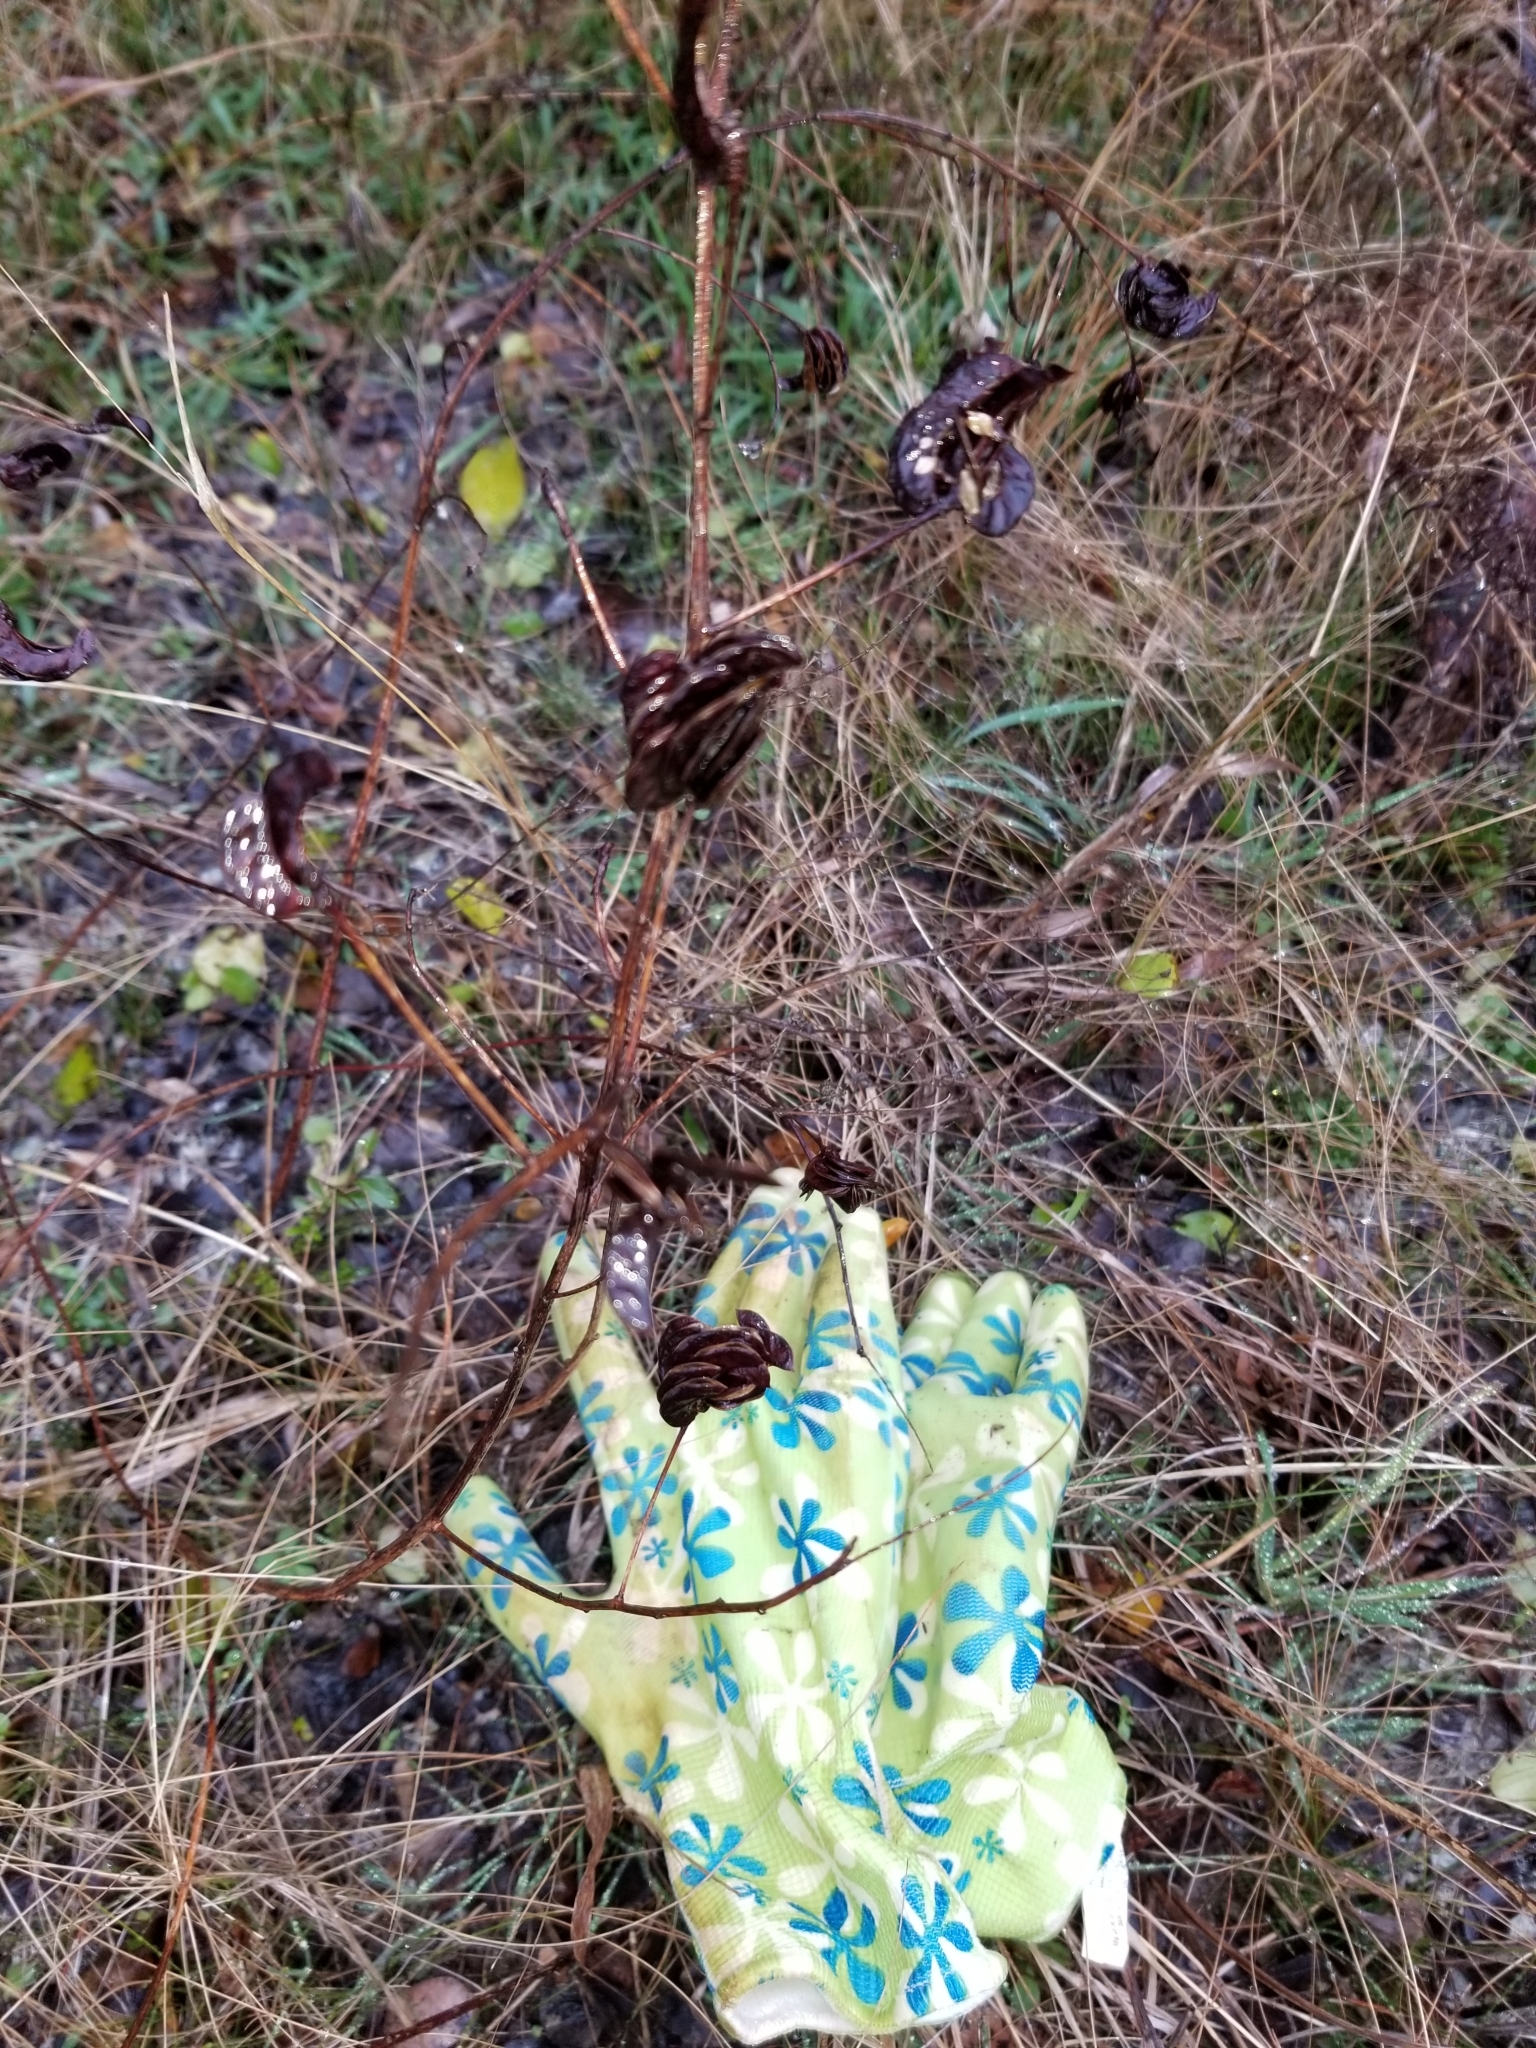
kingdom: Plantae
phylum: Tracheophyta
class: Magnoliopsida
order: Fabales
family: Fabaceae
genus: Desmanthus
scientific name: Desmanthus illinoensis
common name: Illinois bundle-flower
